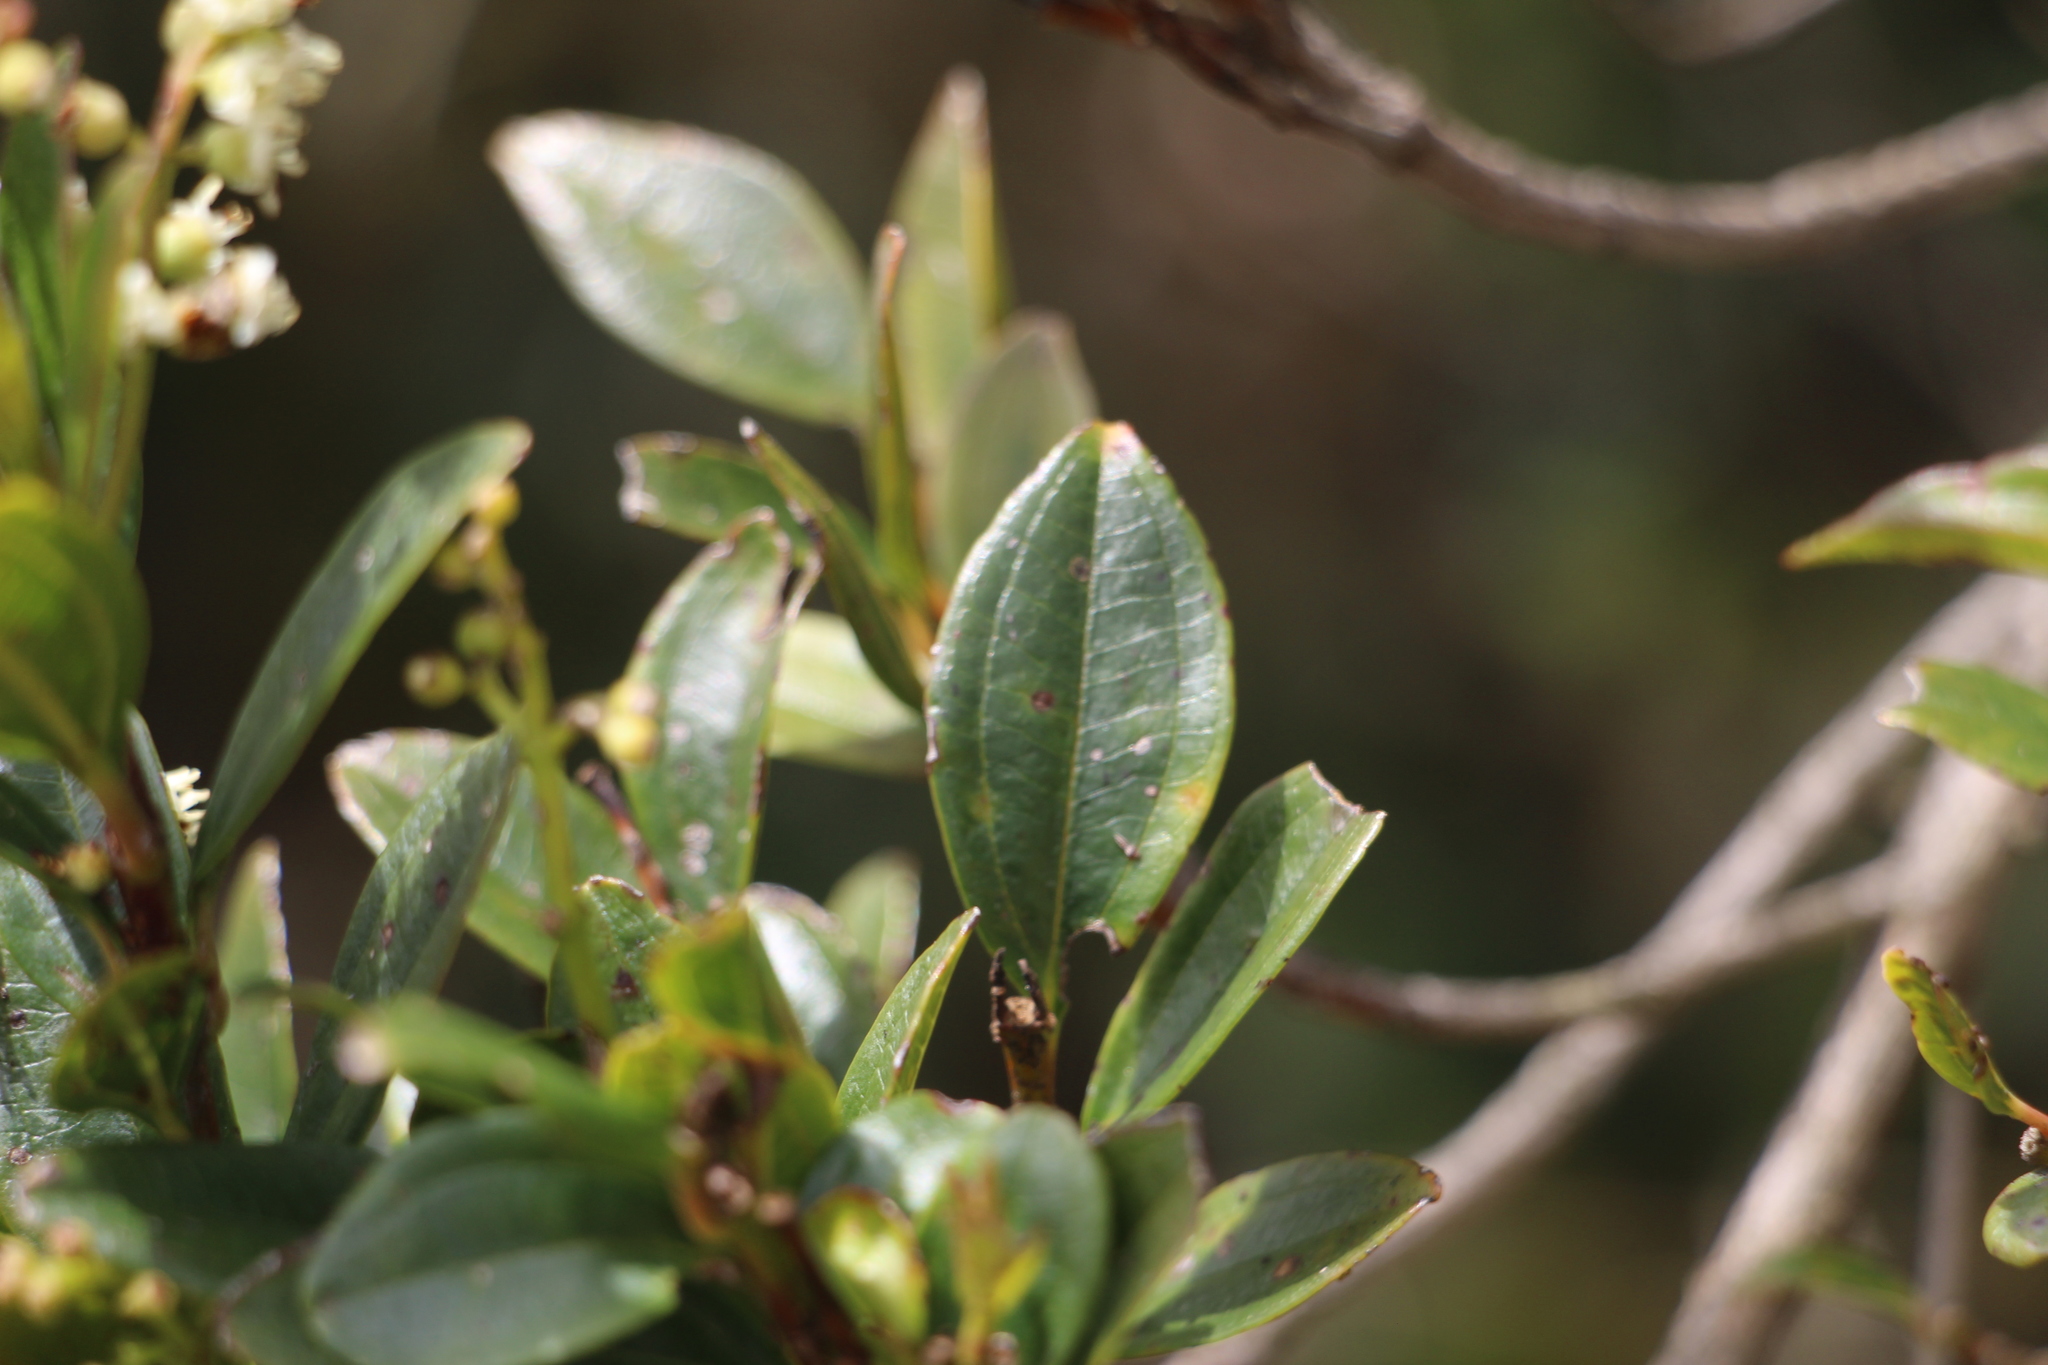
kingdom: Plantae
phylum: Tracheophyta
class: Magnoliopsida
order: Myrtales
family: Melastomataceae
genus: Miconia
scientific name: Miconia ligustrina
